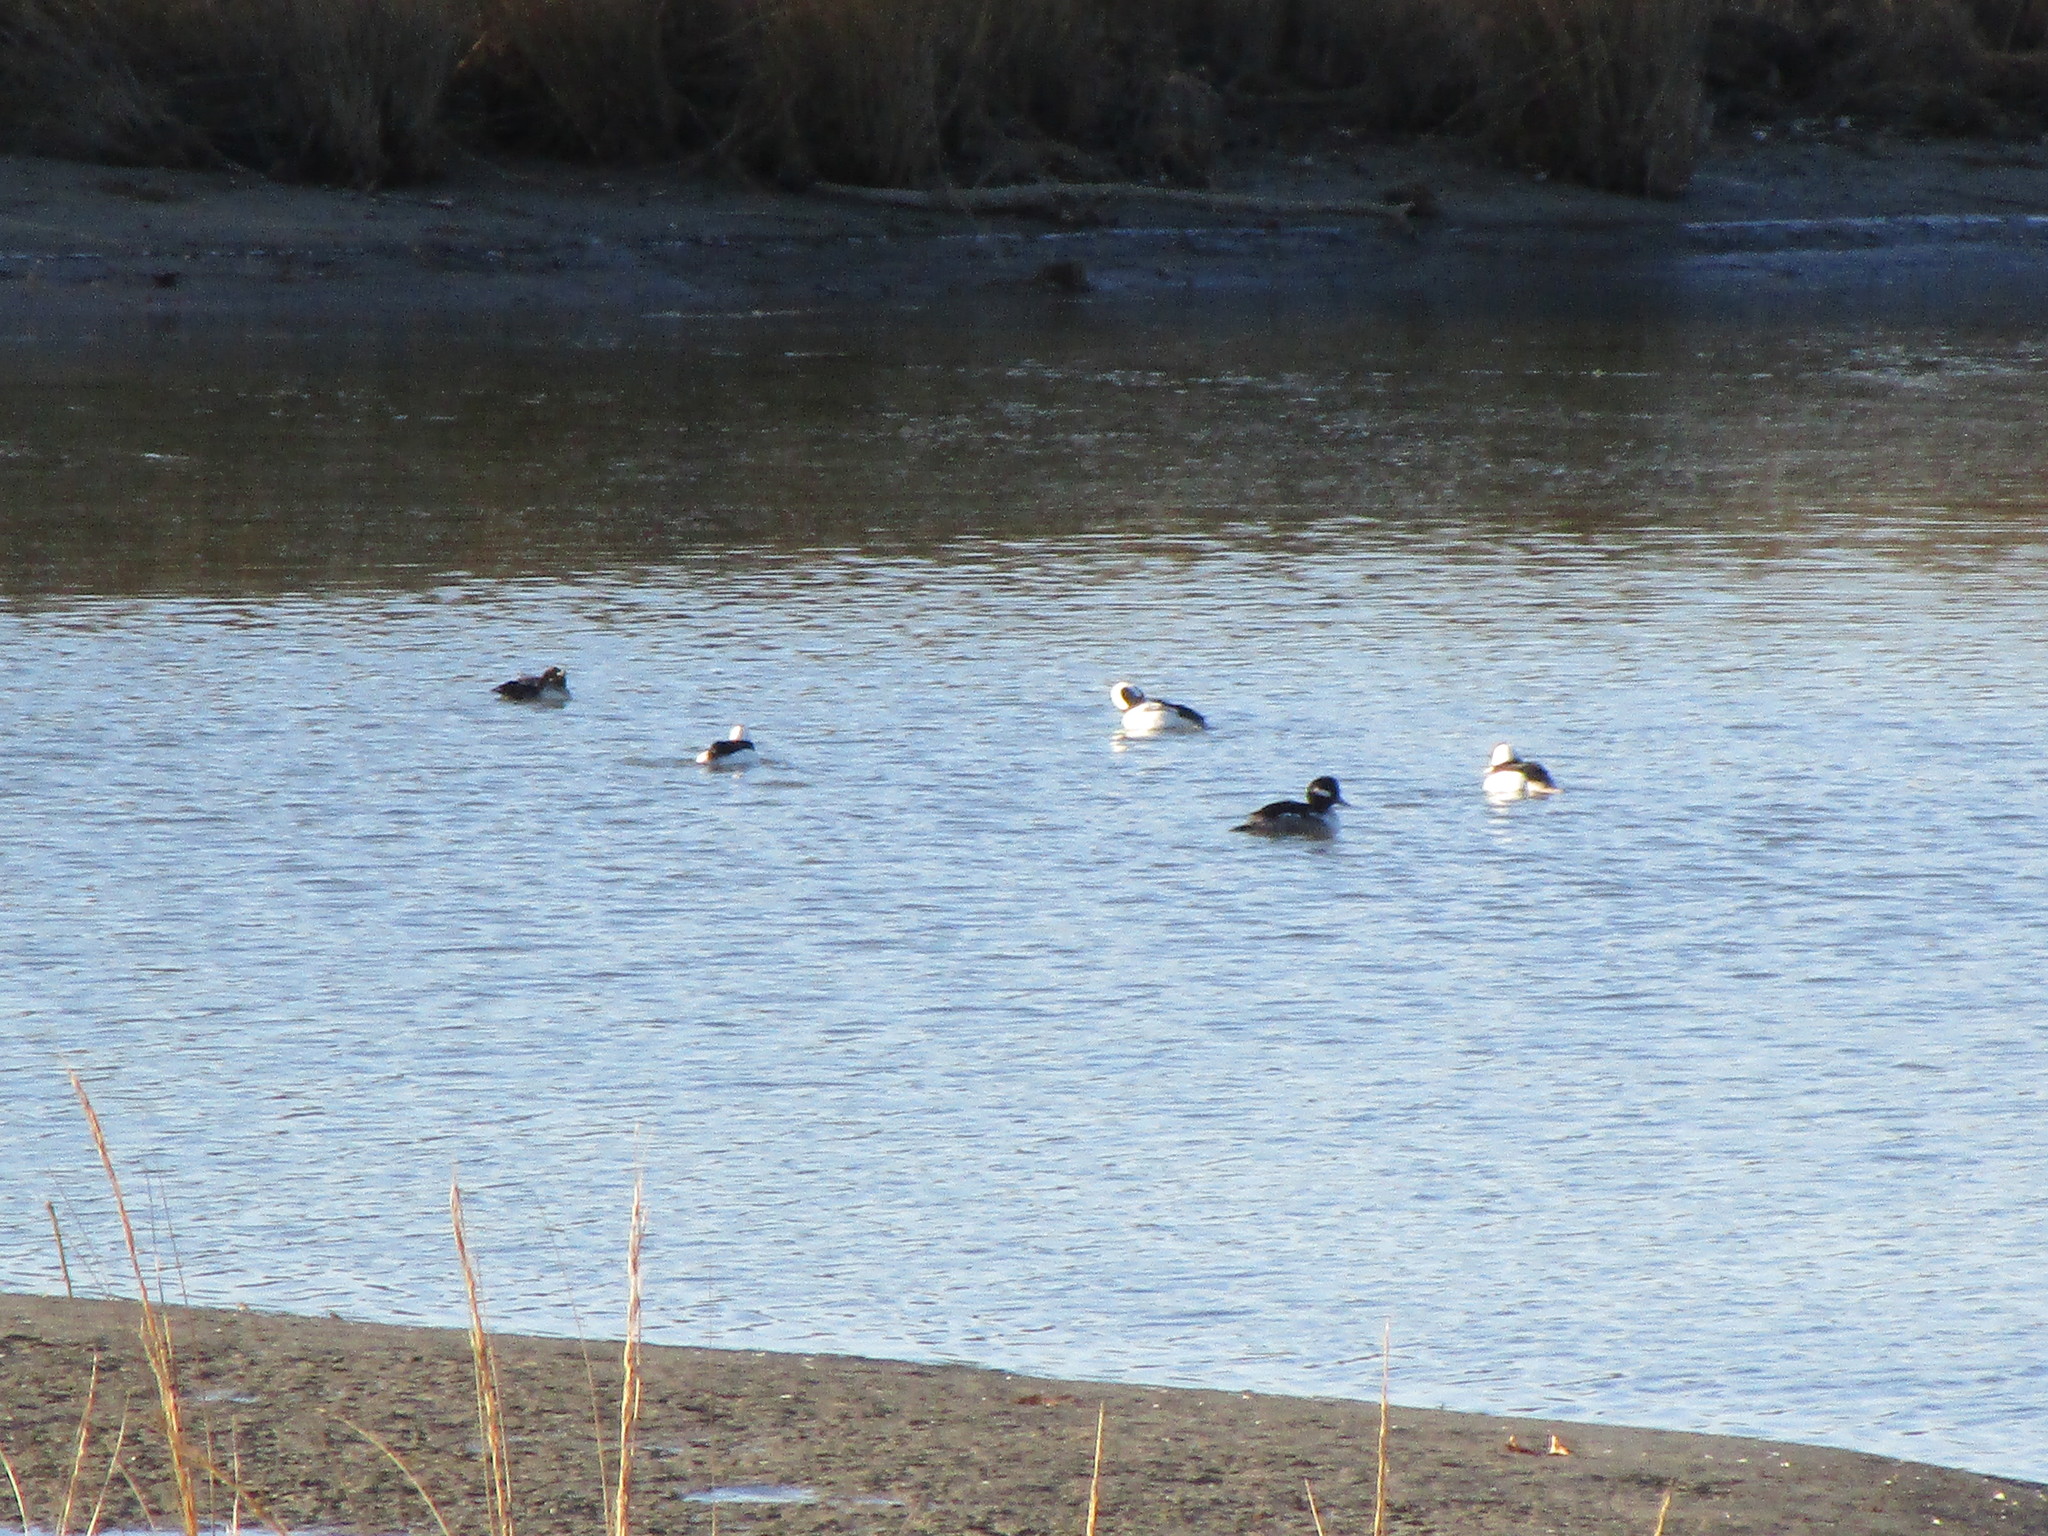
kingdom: Animalia
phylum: Chordata
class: Aves
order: Anseriformes
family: Anatidae
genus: Bucephala
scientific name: Bucephala albeola
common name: Bufflehead
